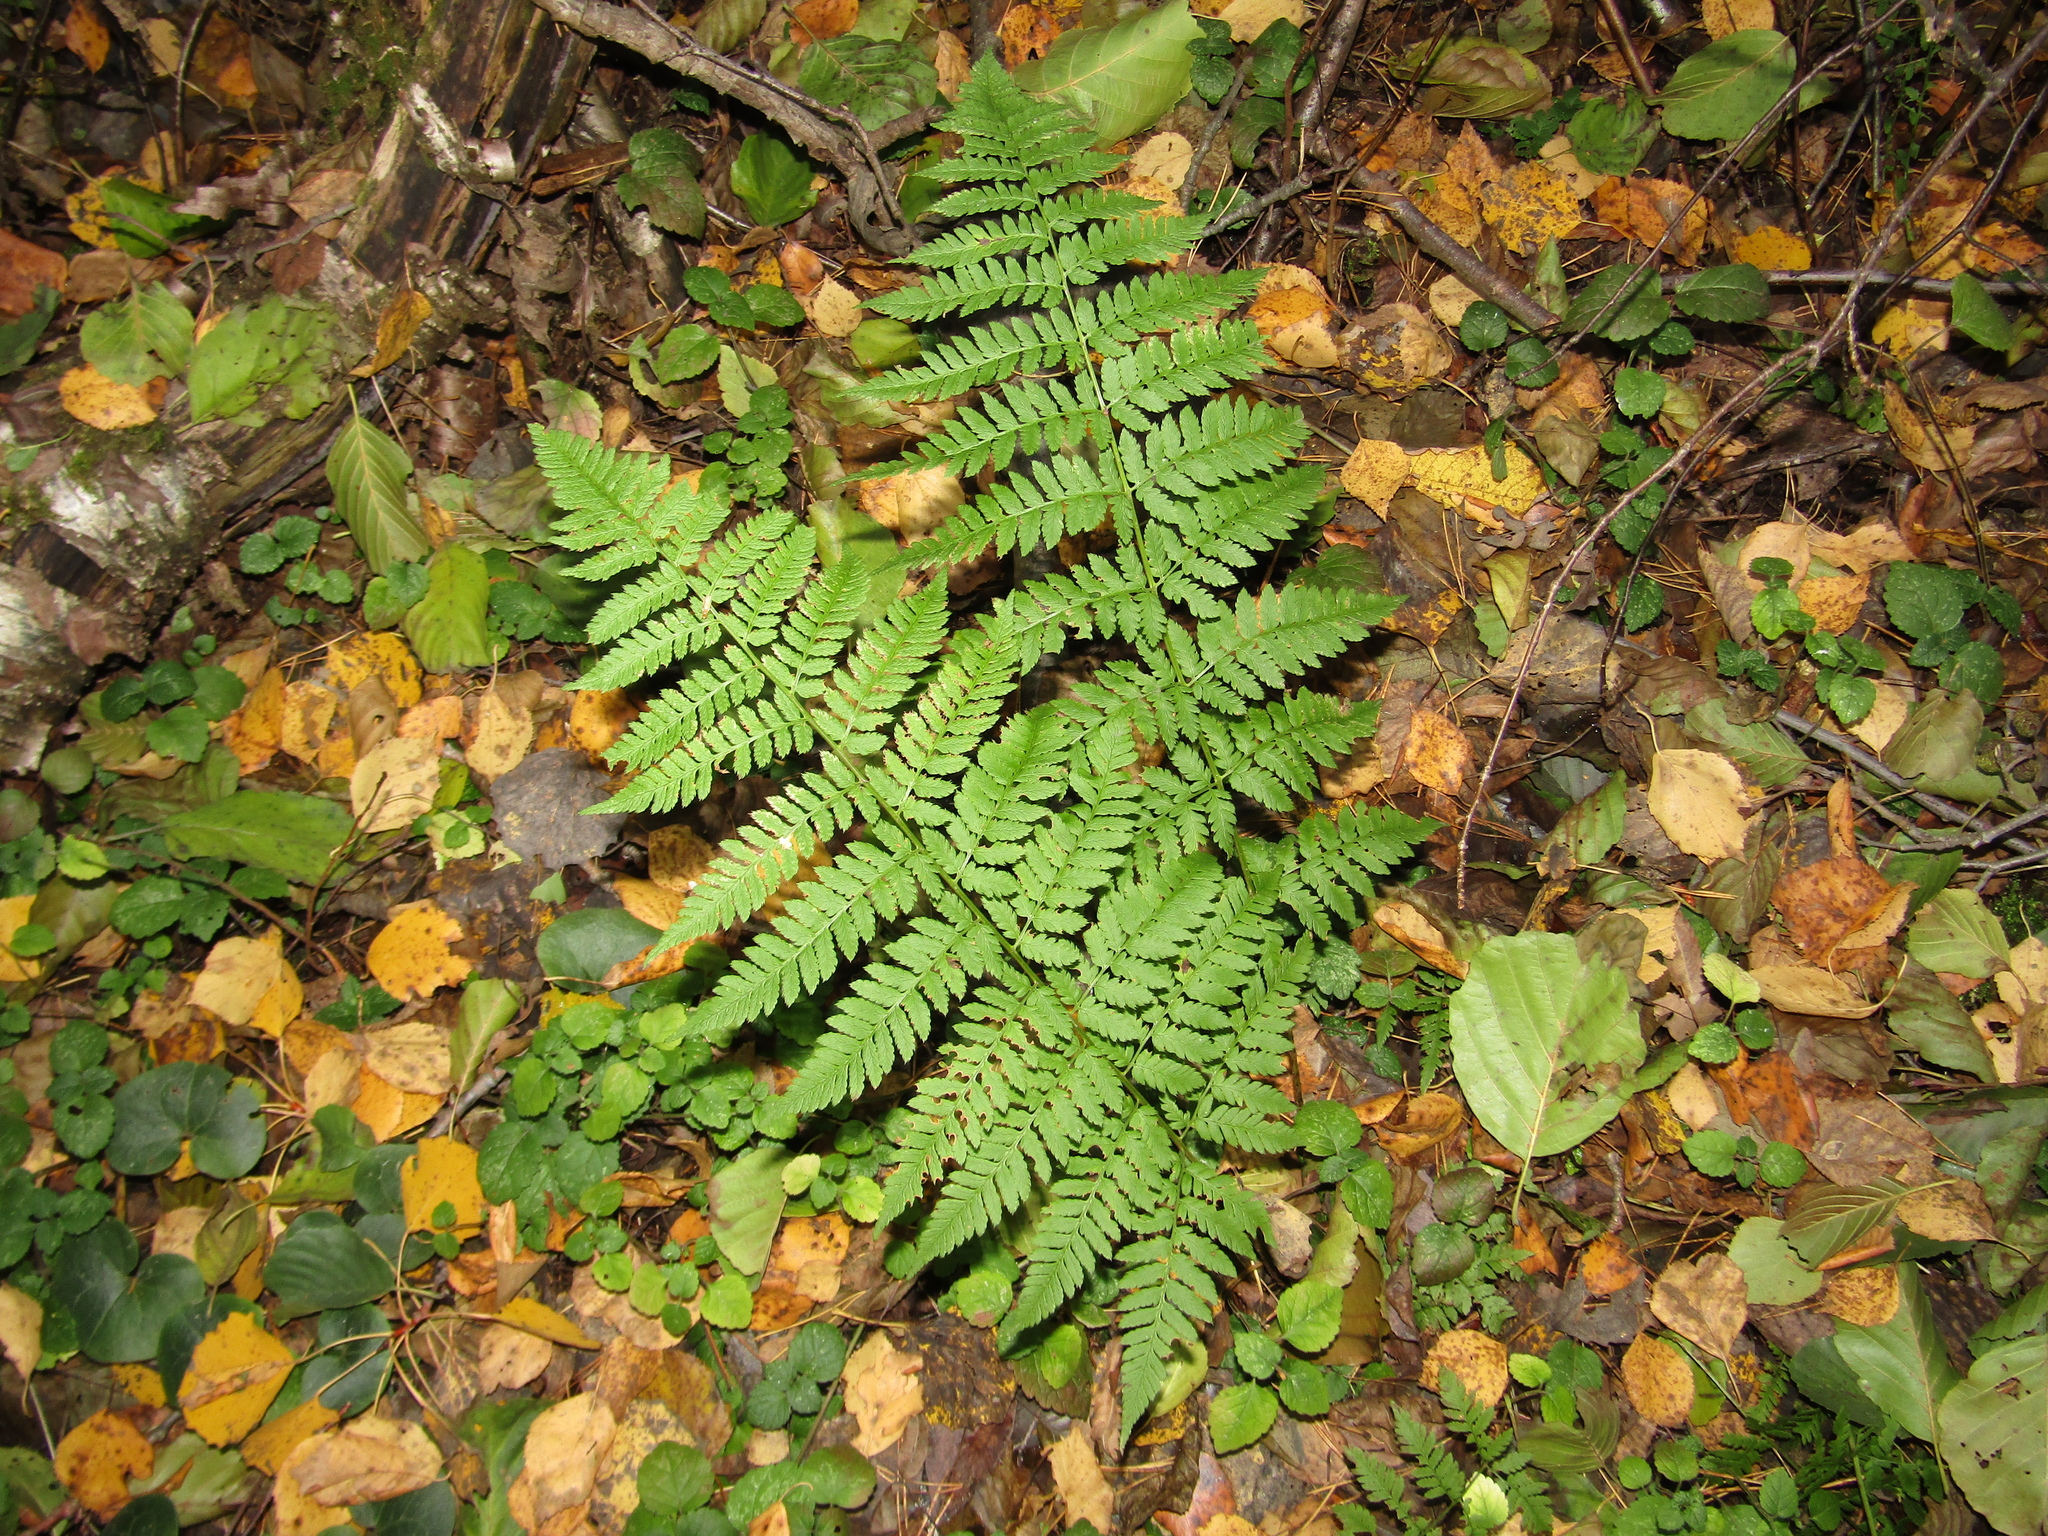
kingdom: Plantae
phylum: Tracheophyta
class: Polypodiopsida
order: Polypodiales
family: Dryopteridaceae
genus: Dryopteris
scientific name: Dryopteris carthusiana
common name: Narrow buckler-fern
